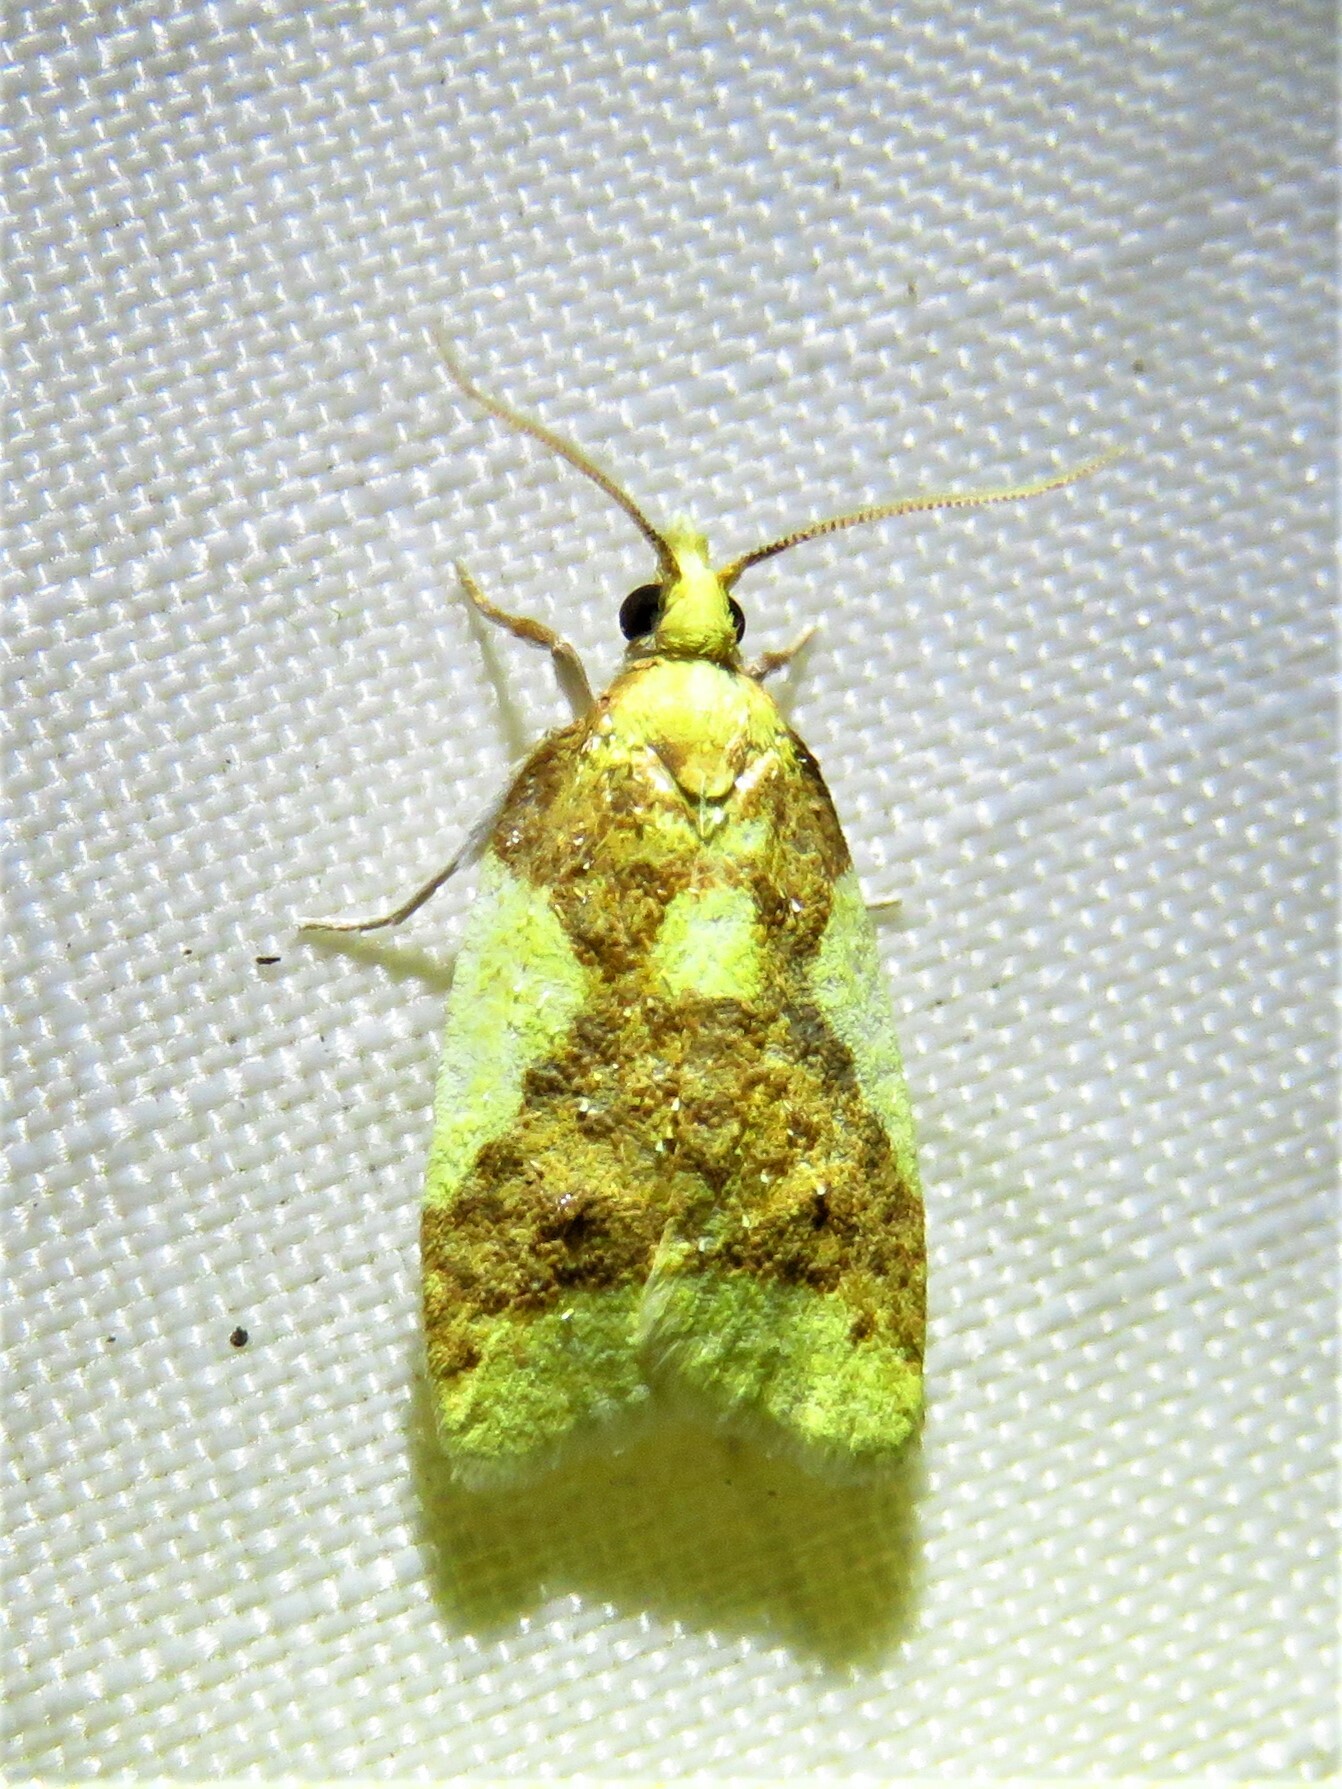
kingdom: Animalia
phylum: Arthropoda
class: Insecta
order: Lepidoptera
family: Tortricidae
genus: Sparganothis
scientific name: Sparganothis pulcherrimana
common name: Beautiful sparganothis
